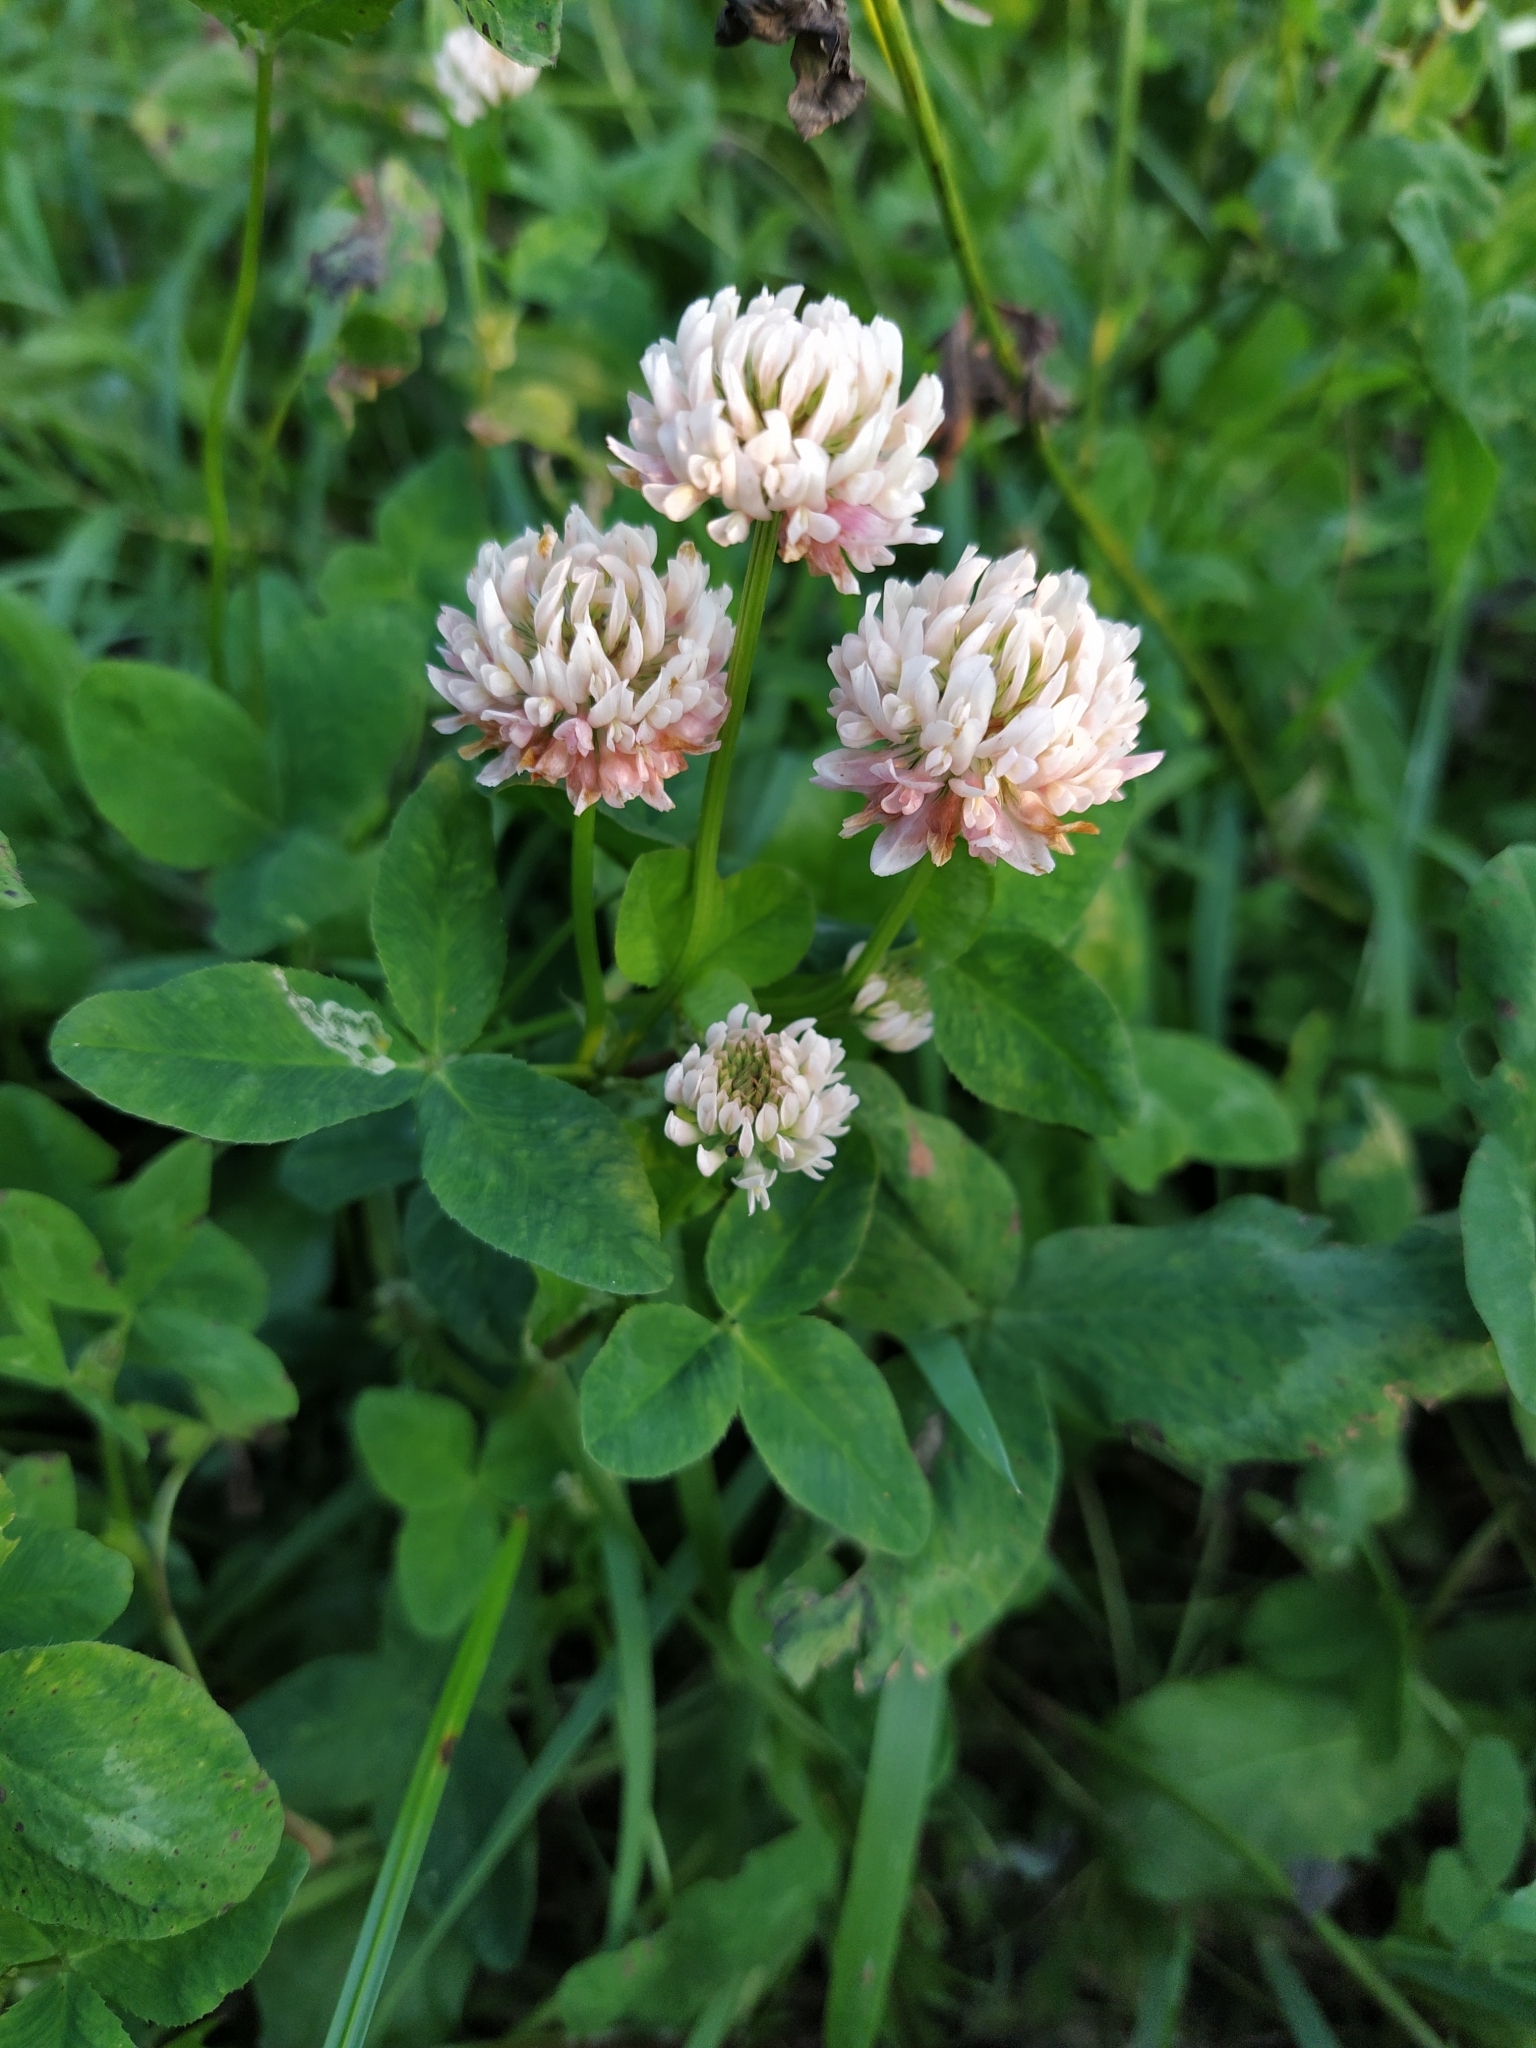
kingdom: Plantae
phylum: Tracheophyta
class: Magnoliopsida
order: Fabales
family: Fabaceae
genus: Trifolium
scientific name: Trifolium hybridum
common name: Alsike clover
